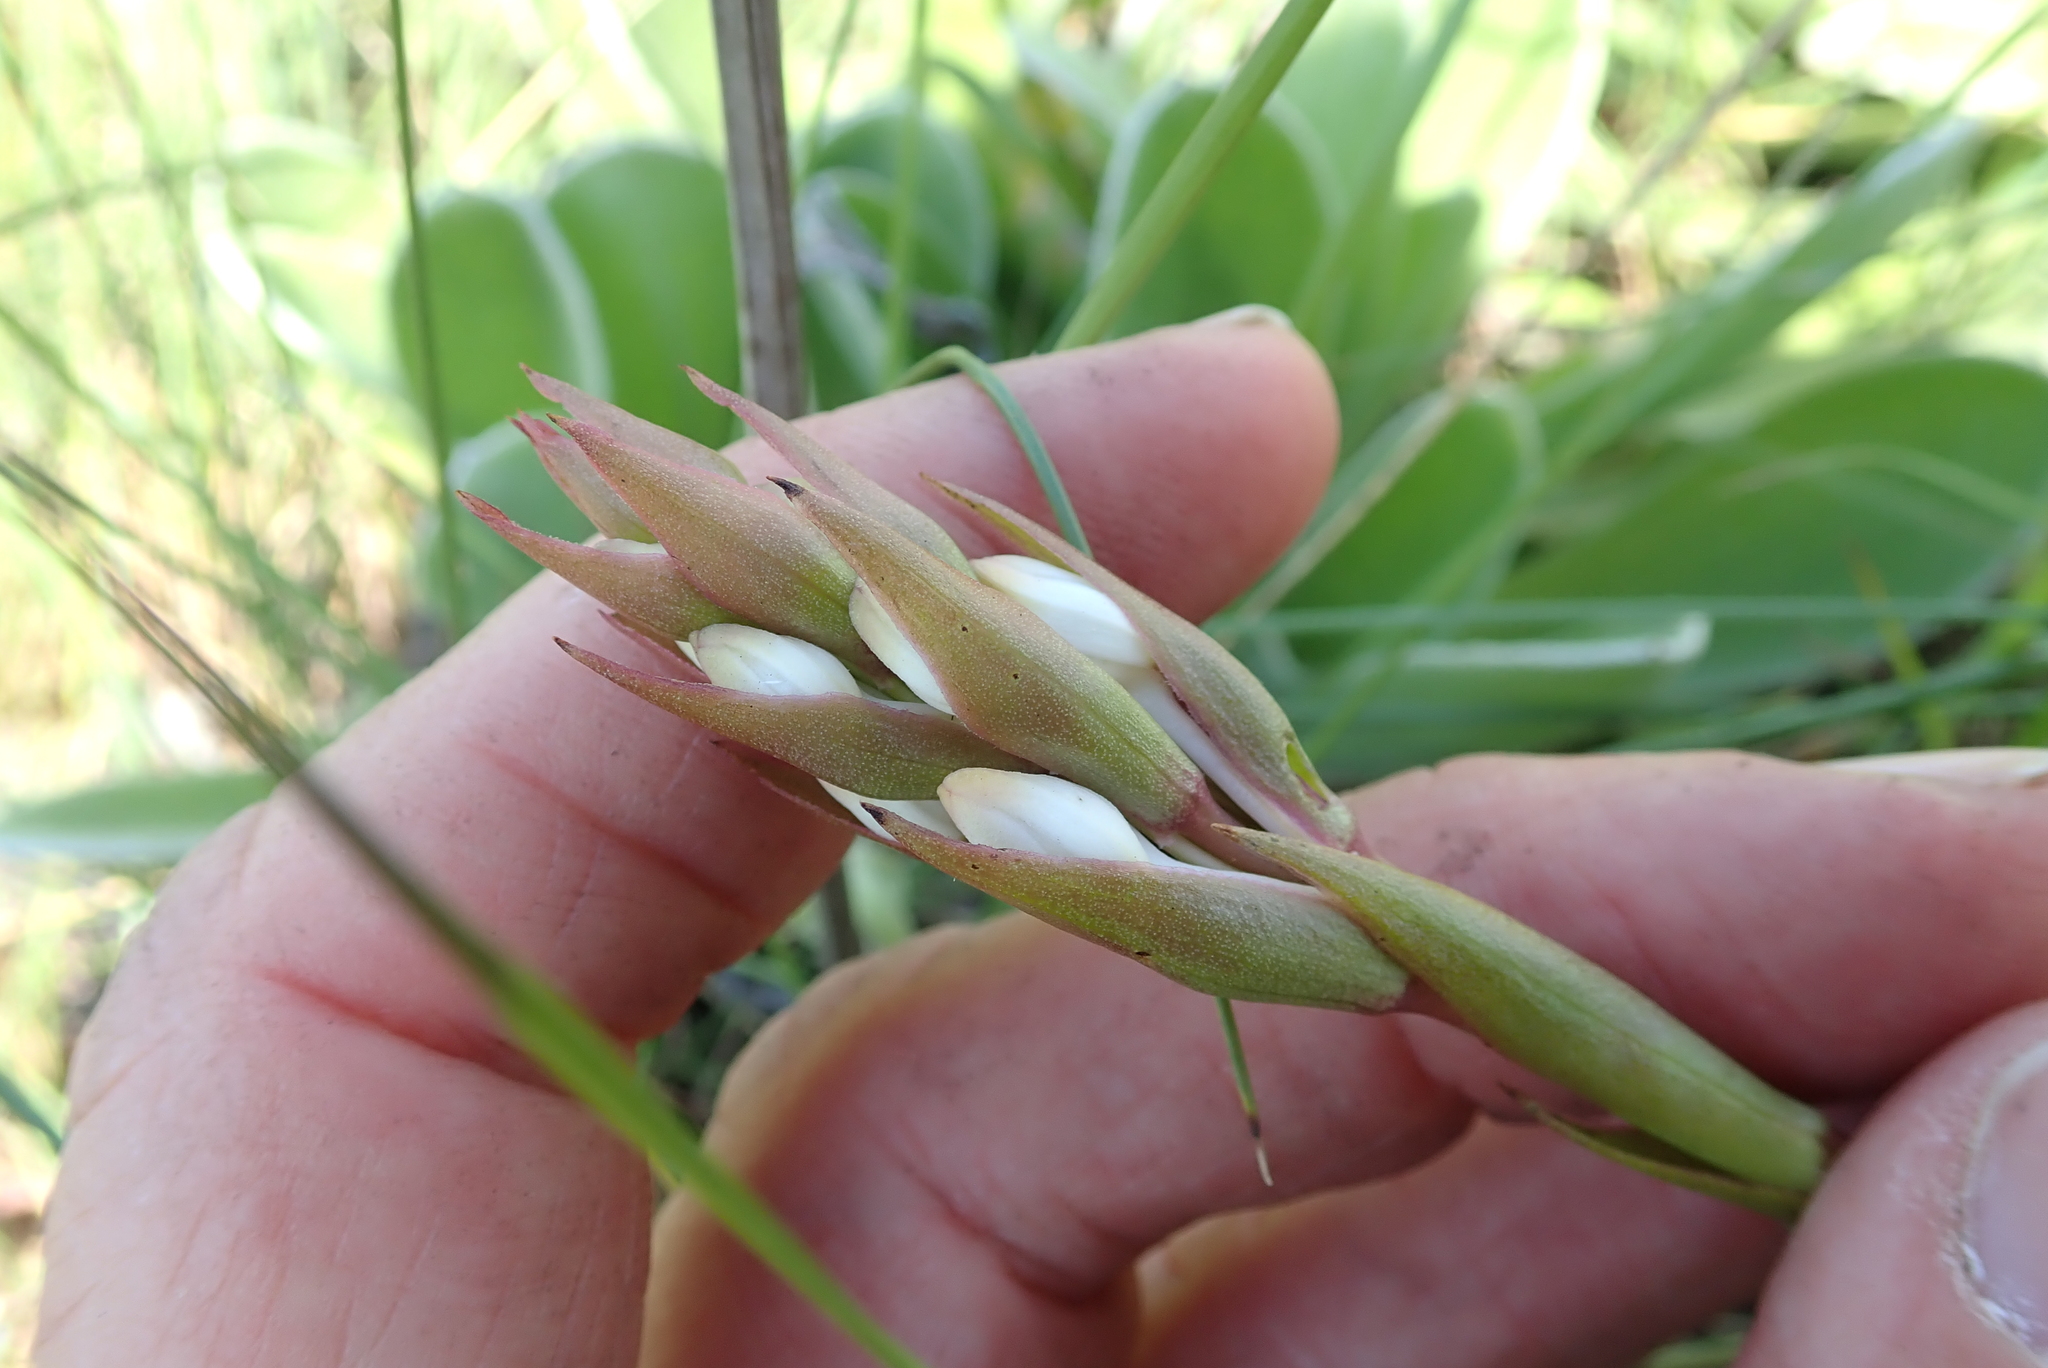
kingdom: Plantae
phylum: Tracheophyta
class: Liliopsida
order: Asparagales
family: Orchidaceae
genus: Satyrium
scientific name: Satyrium longicauda
